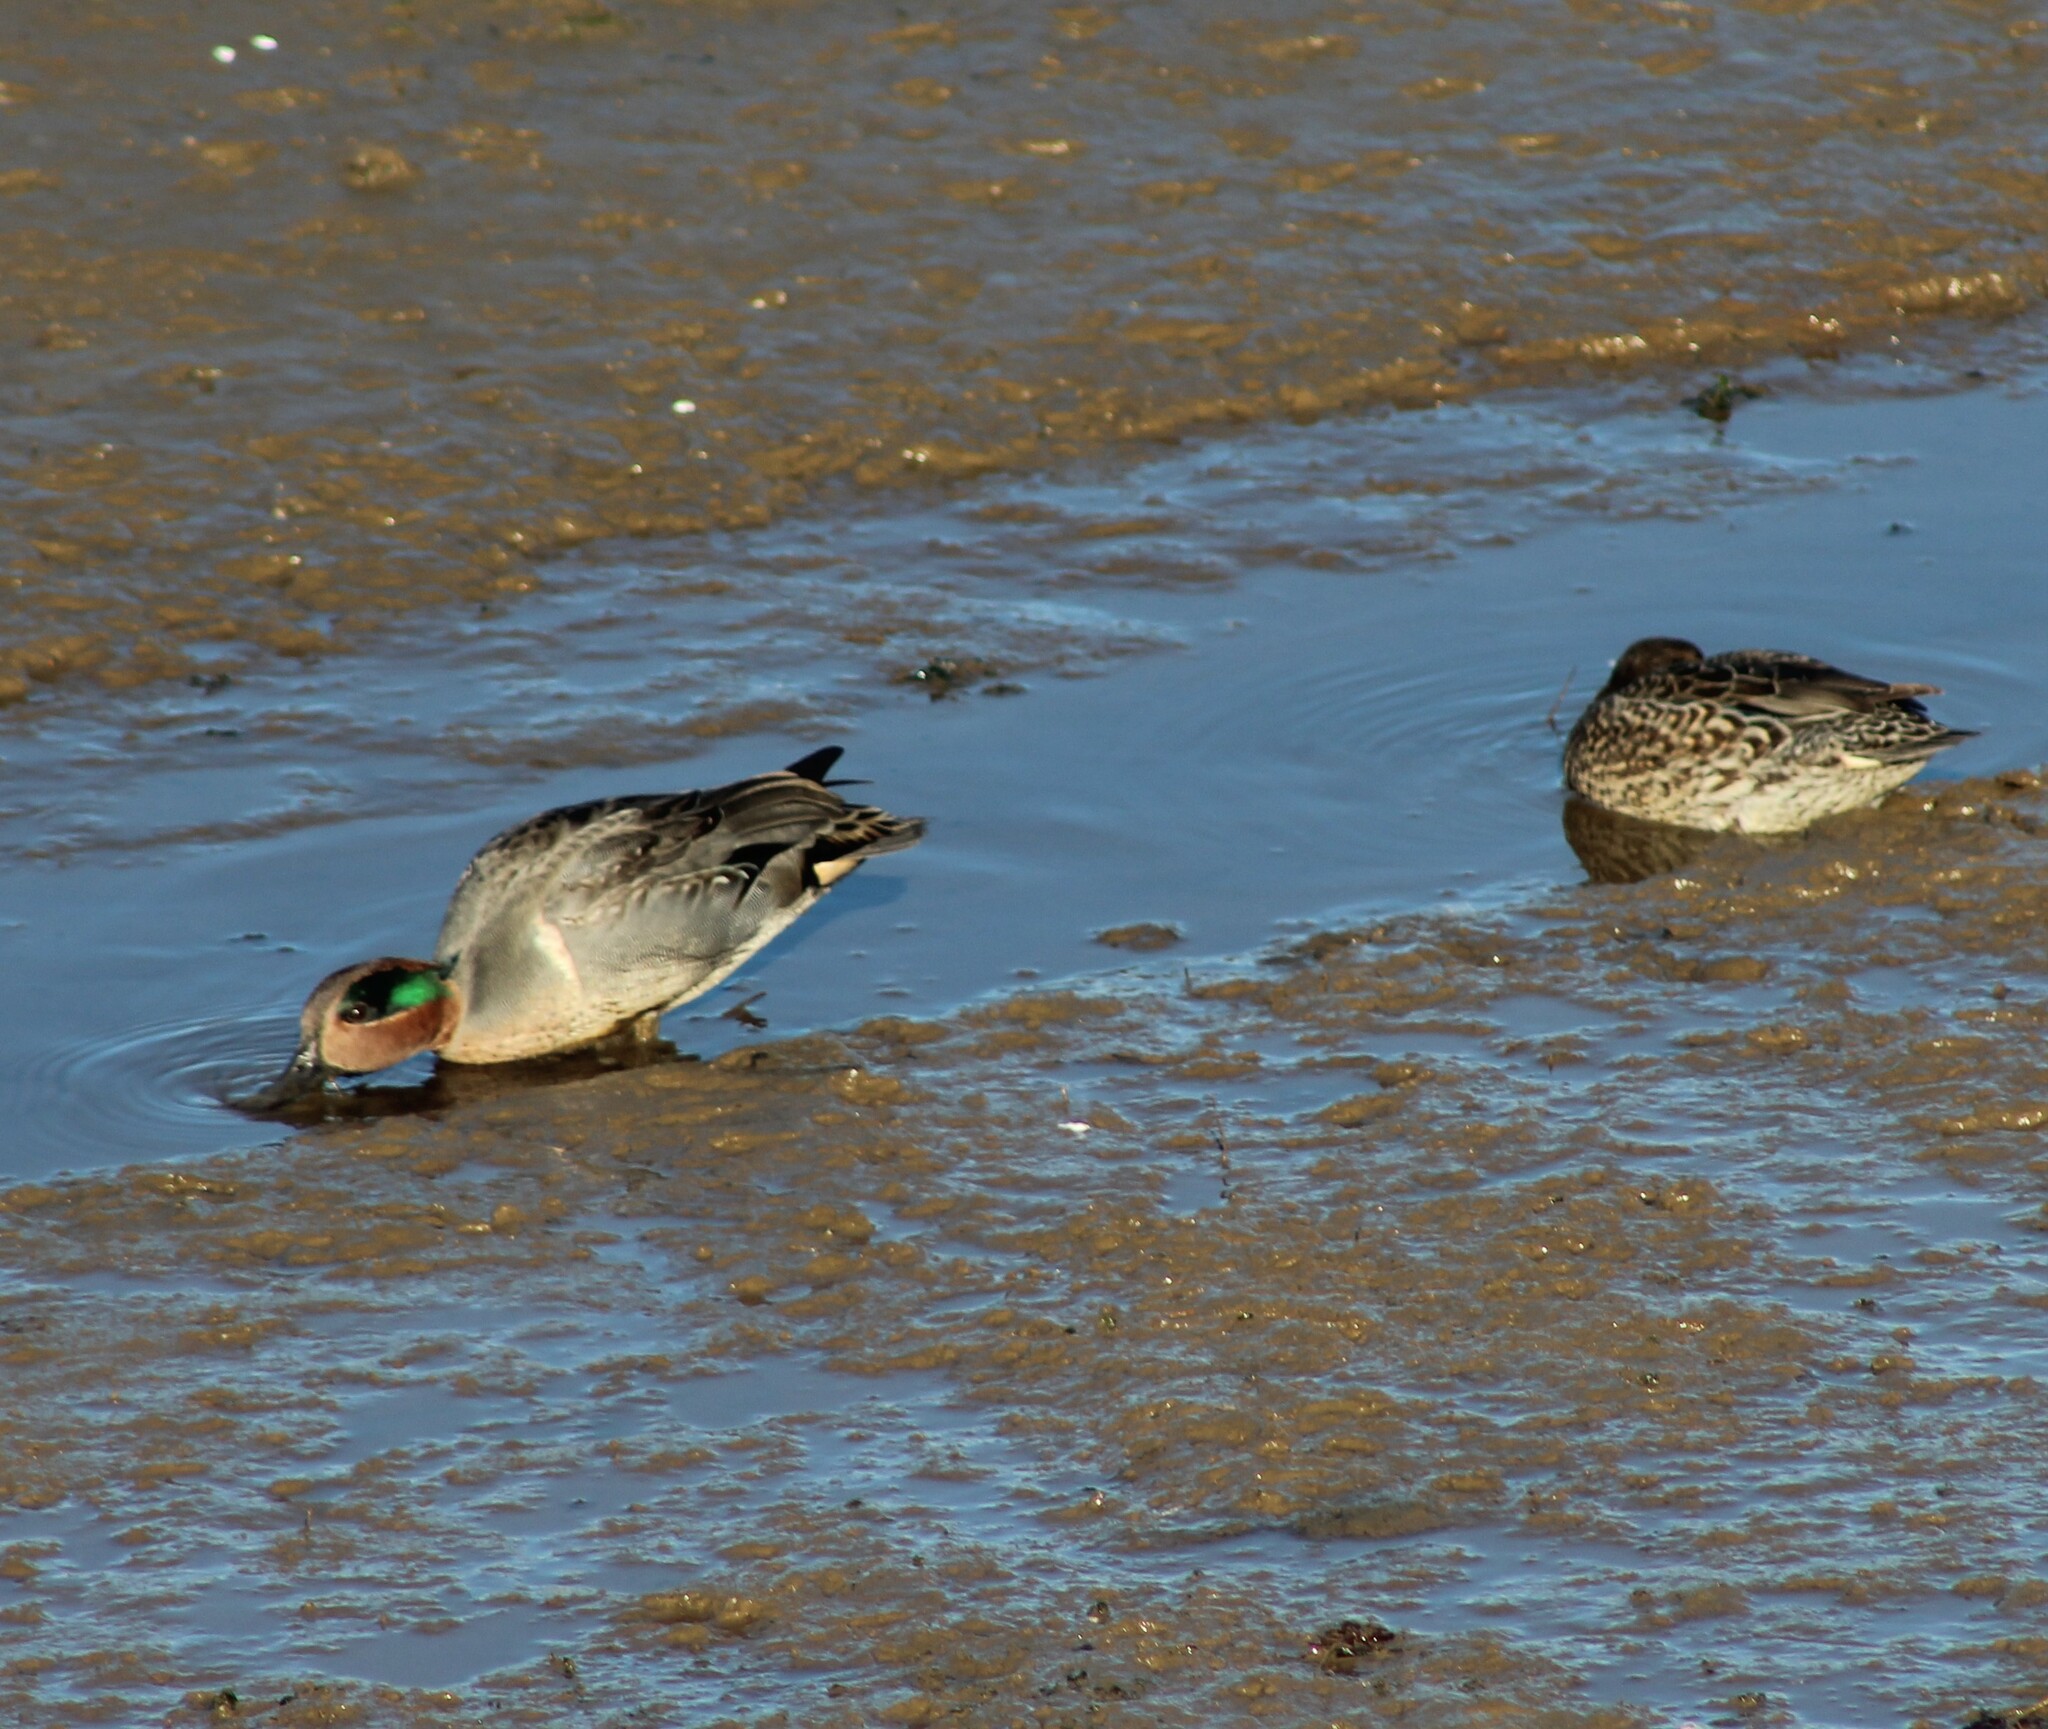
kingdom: Animalia
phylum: Chordata
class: Aves
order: Anseriformes
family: Anatidae
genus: Anas
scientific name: Anas crecca
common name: Eurasian teal
